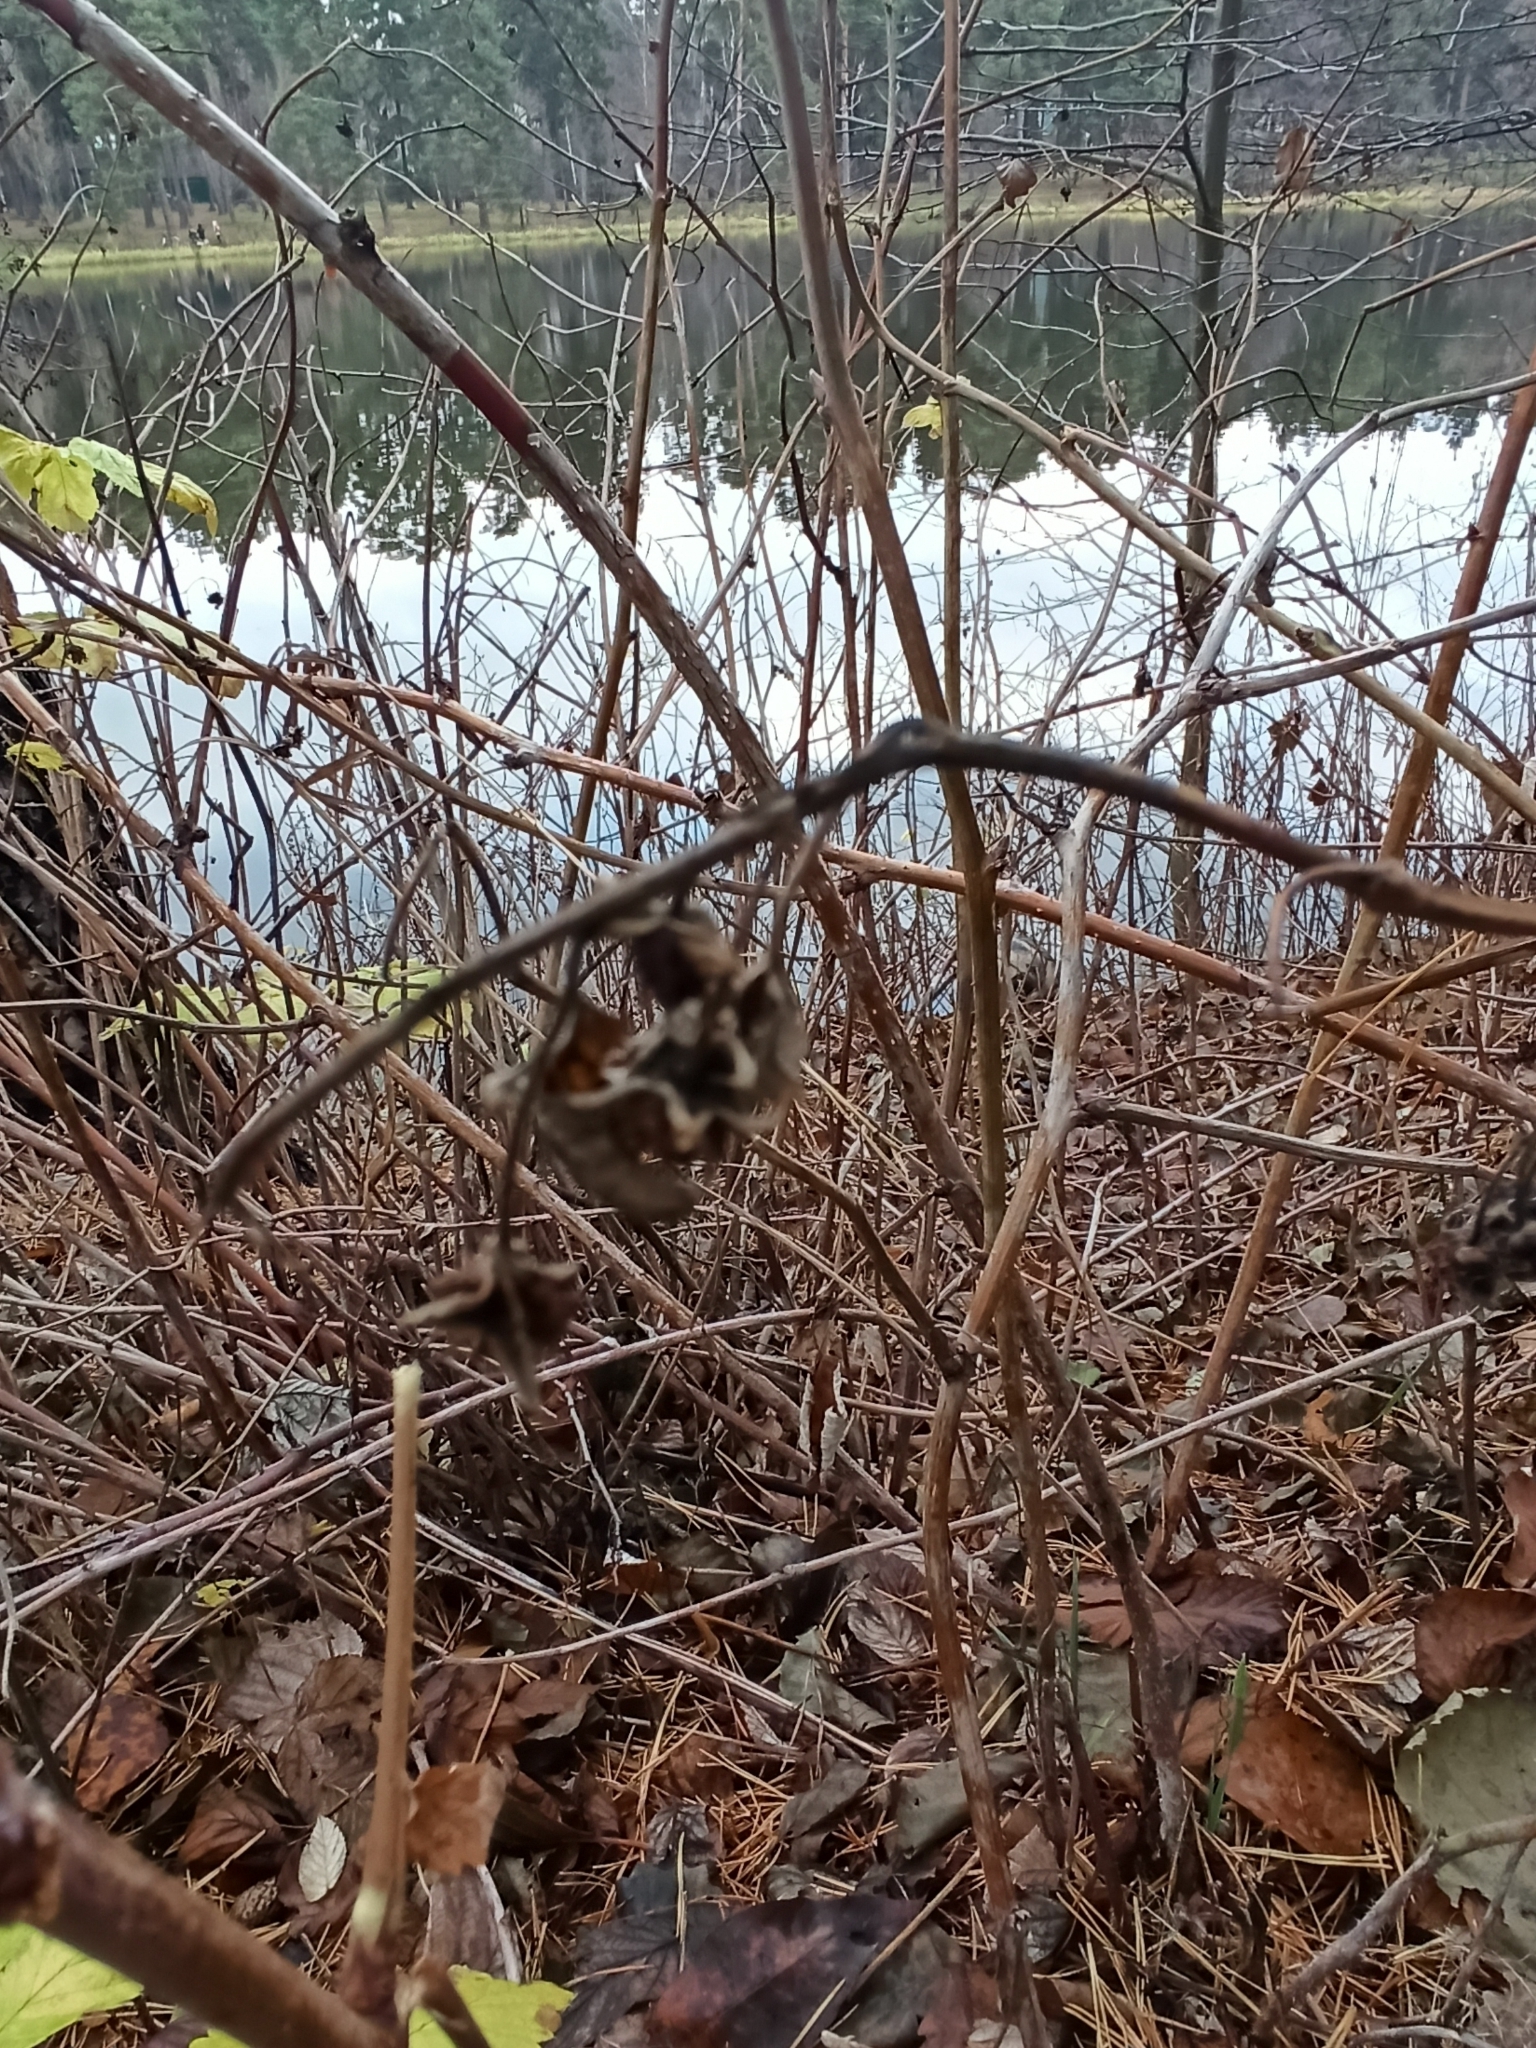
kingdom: Plantae
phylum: Tracheophyta
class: Magnoliopsida
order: Rosales
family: Rosaceae
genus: Rubus
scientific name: Rubus idaeus
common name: Raspberry
